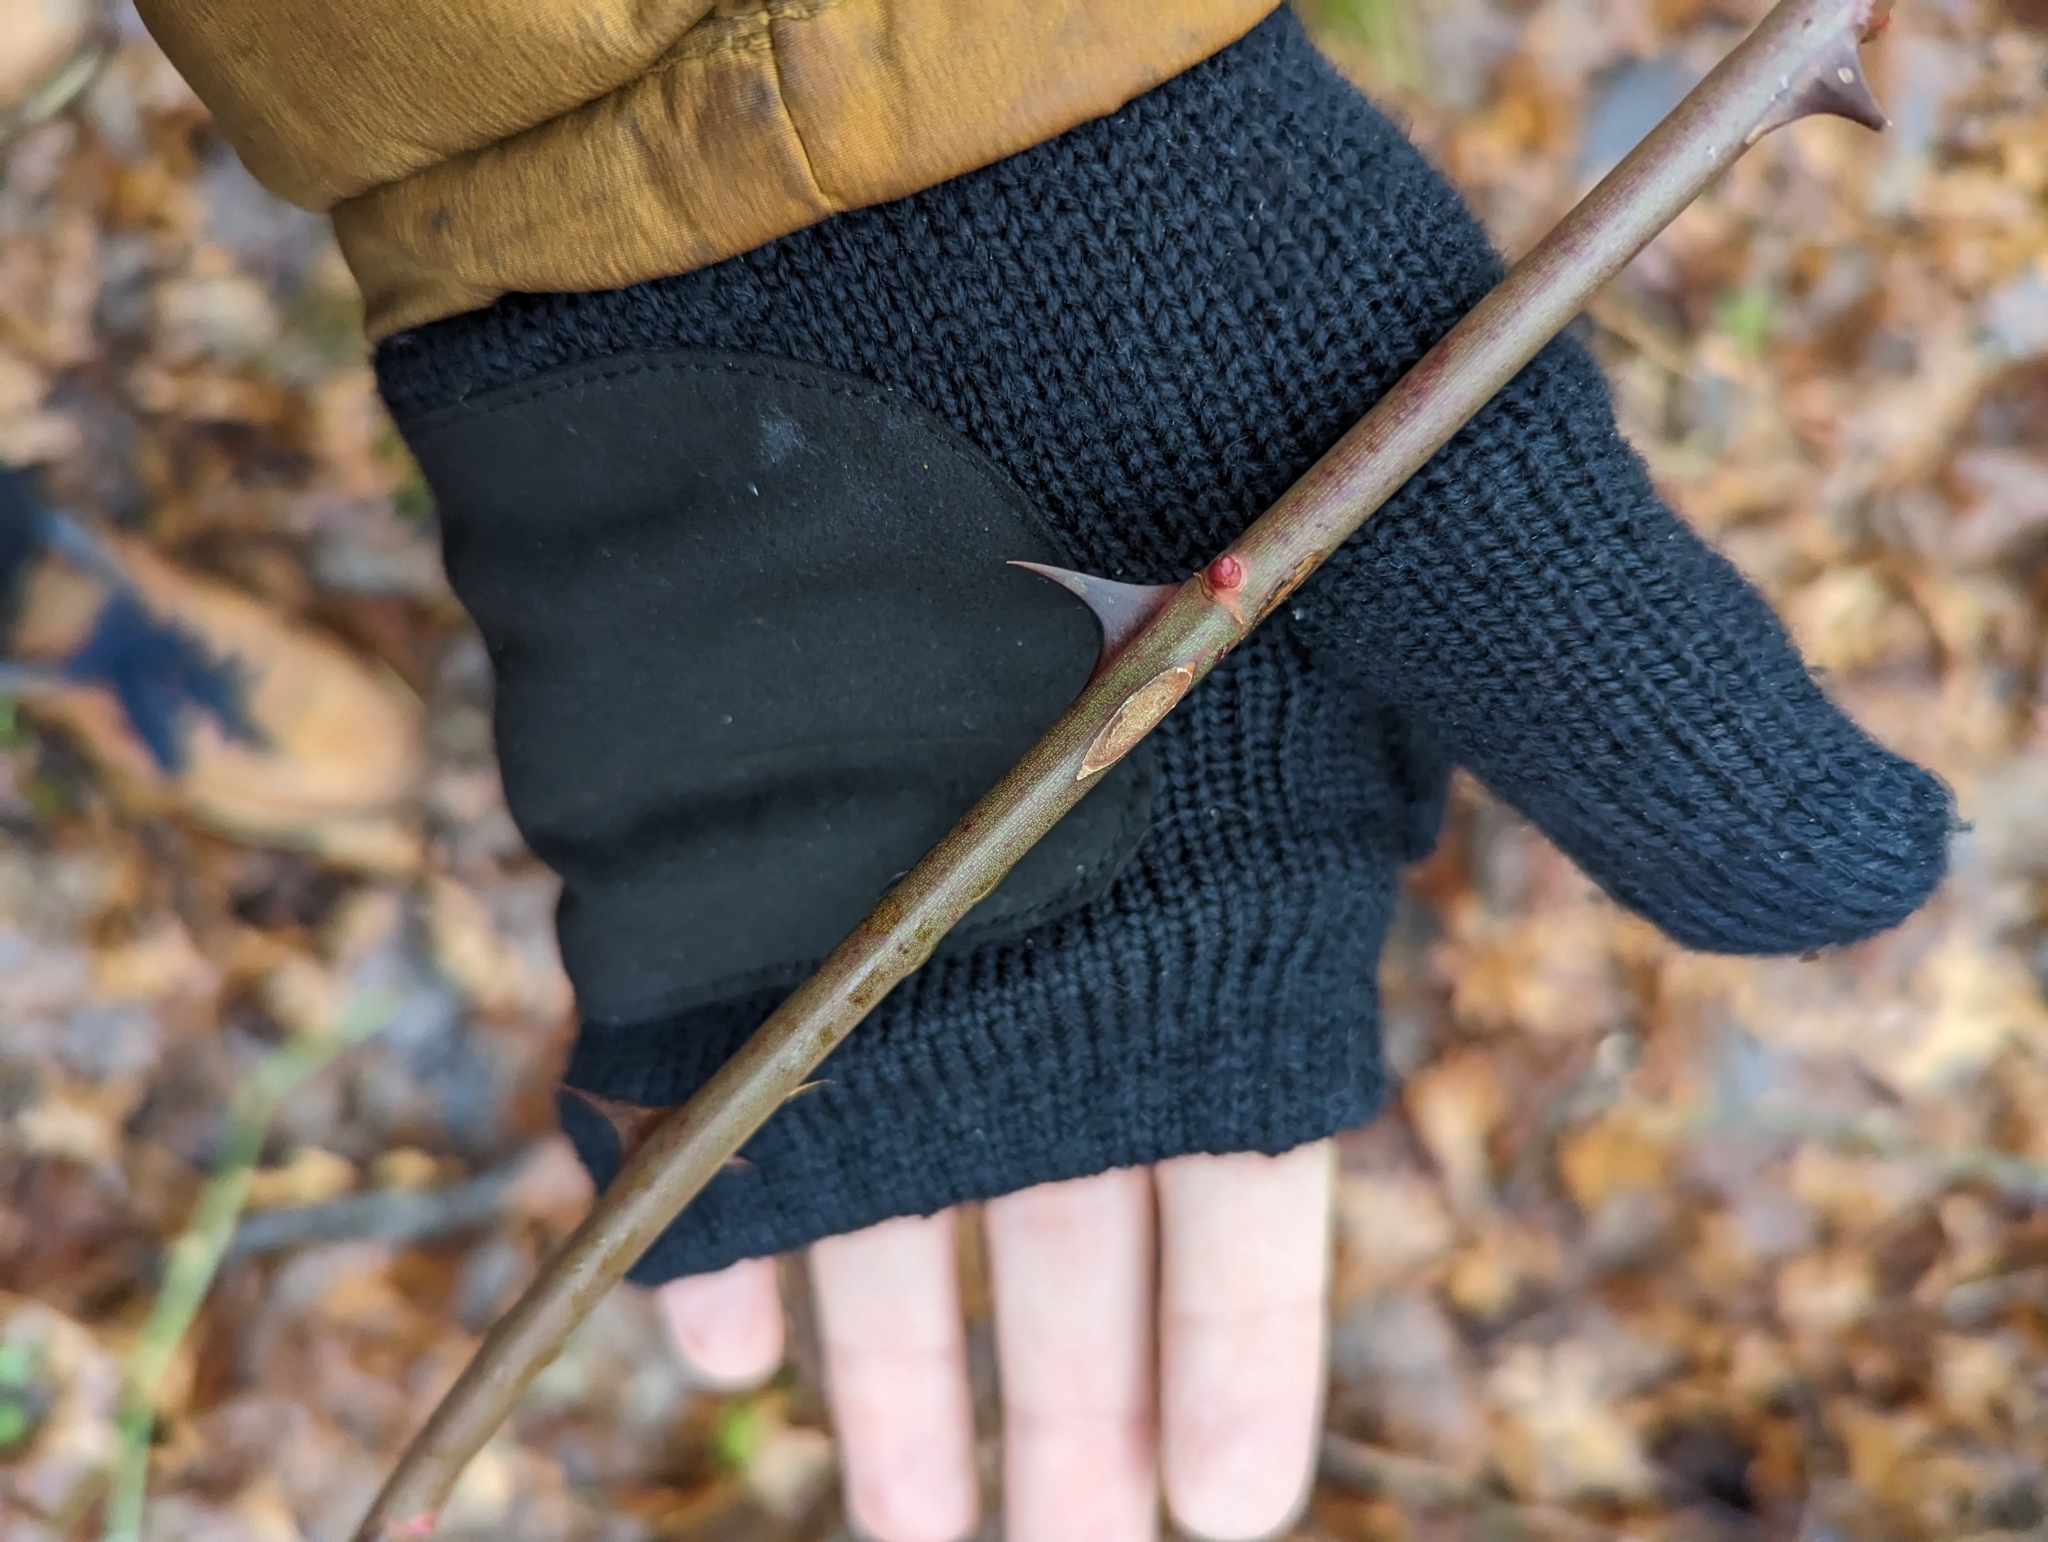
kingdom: Plantae
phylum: Tracheophyta
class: Magnoliopsida
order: Rosales
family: Rosaceae
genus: Rosa
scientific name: Rosa multiflora
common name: Multiflora rose
